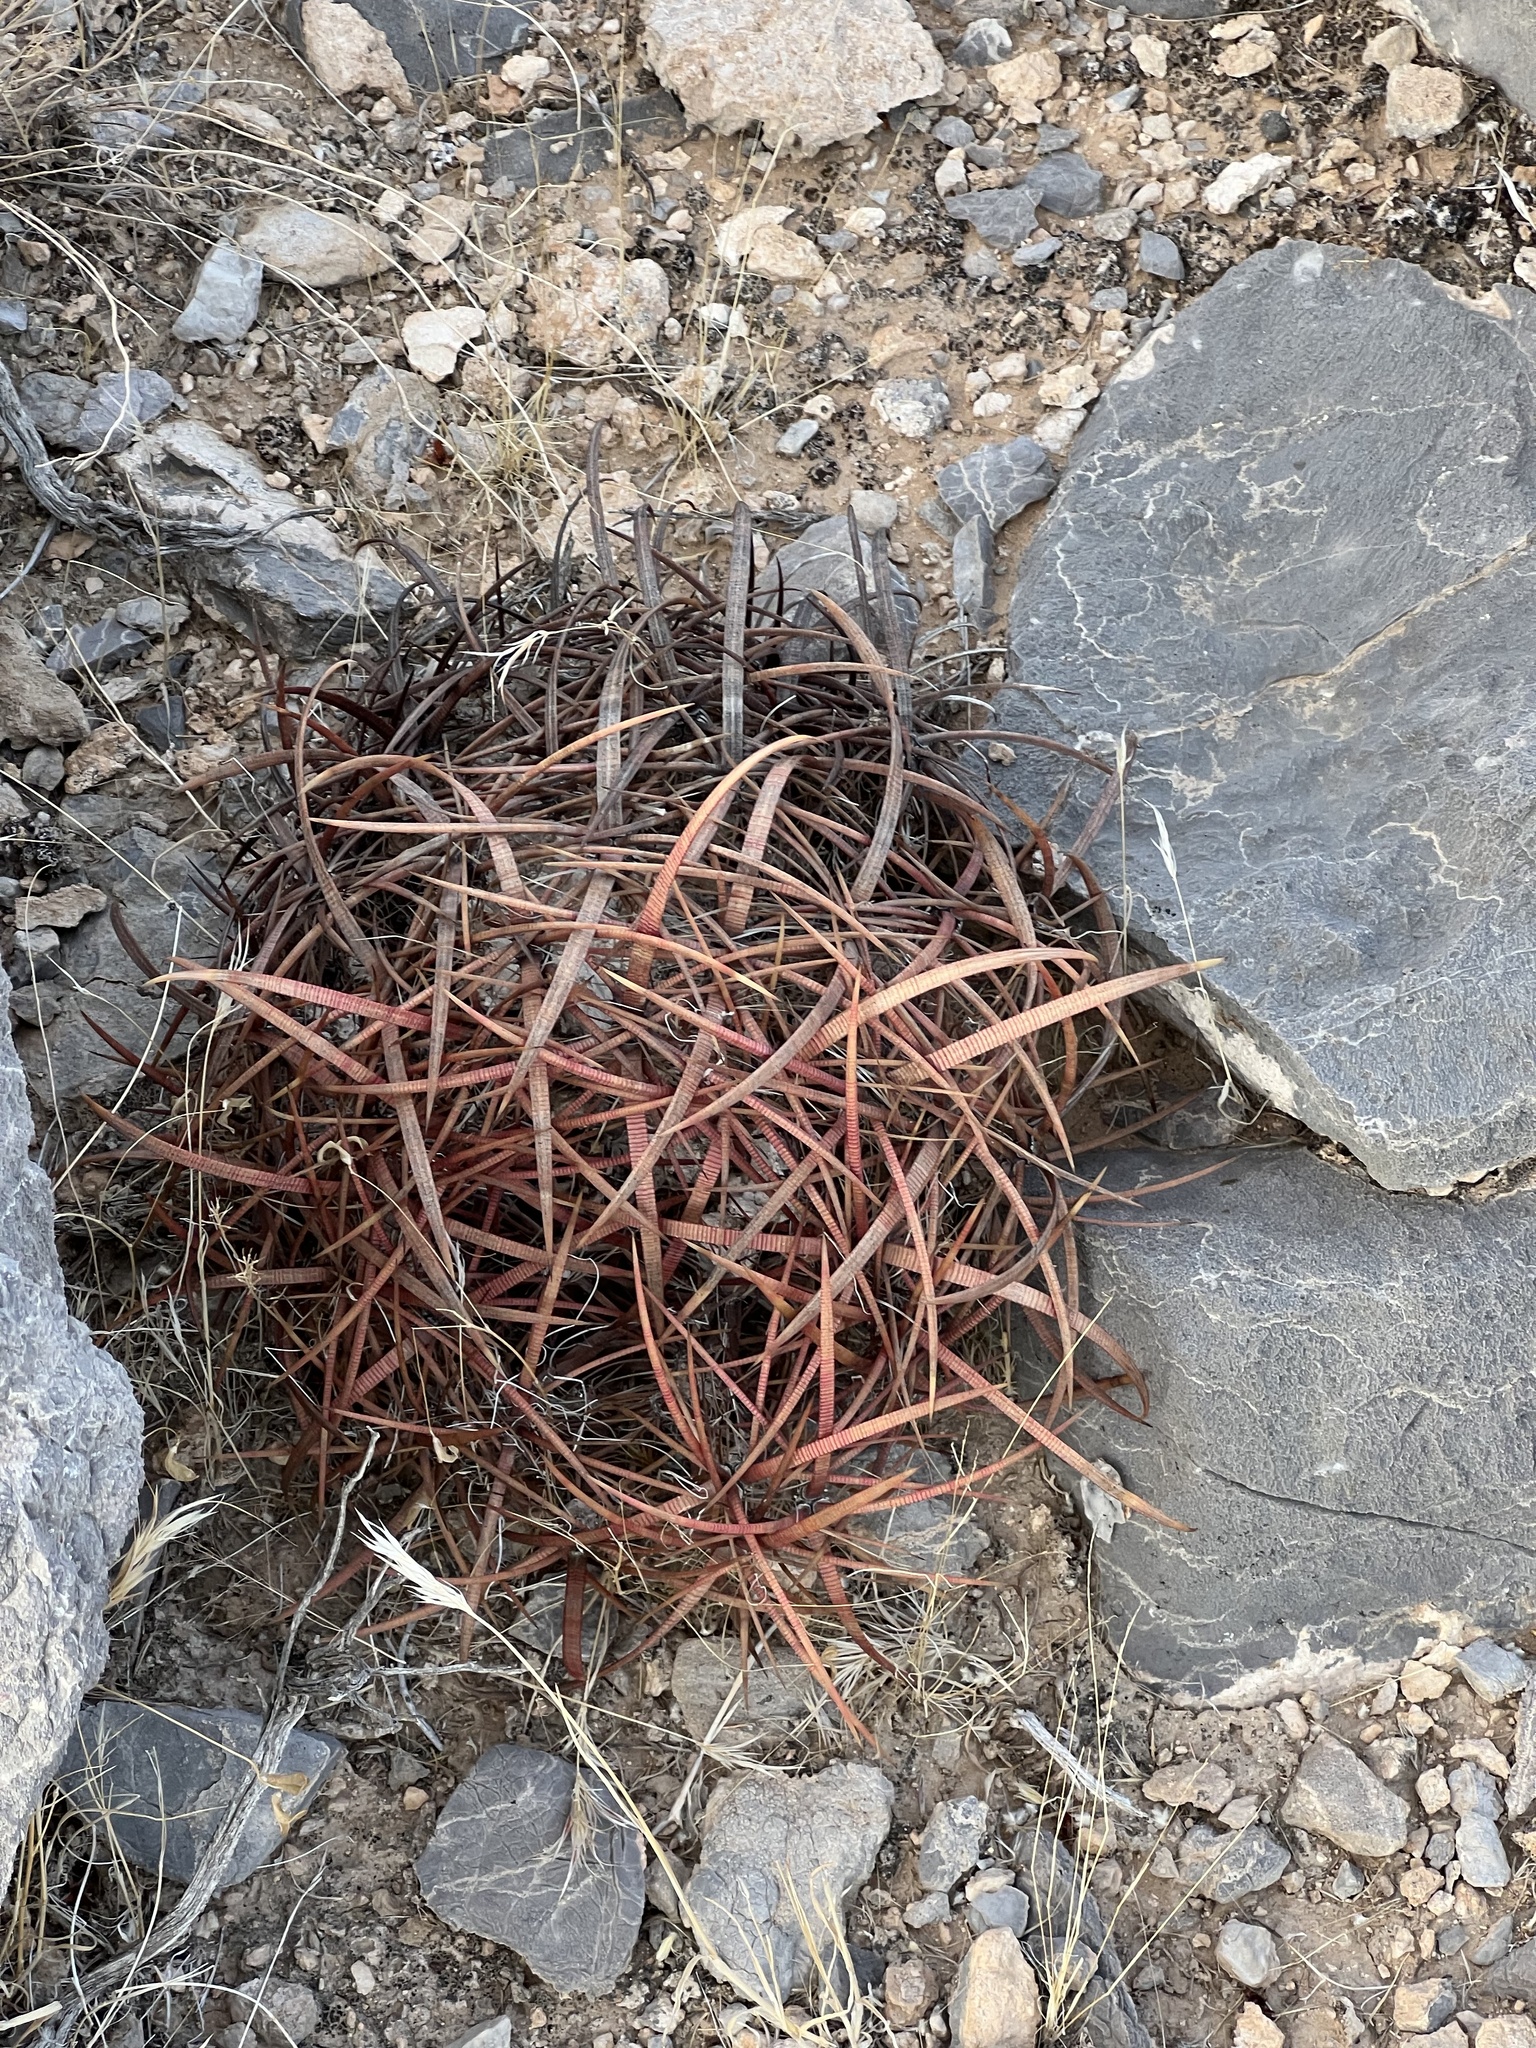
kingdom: Plantae
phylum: Tracheophyta
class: Magnoliopsida
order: Caryophyllales
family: Cactaceae
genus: Ferocactus
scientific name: Ferocactus cylindraceus
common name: California barrel cactus
